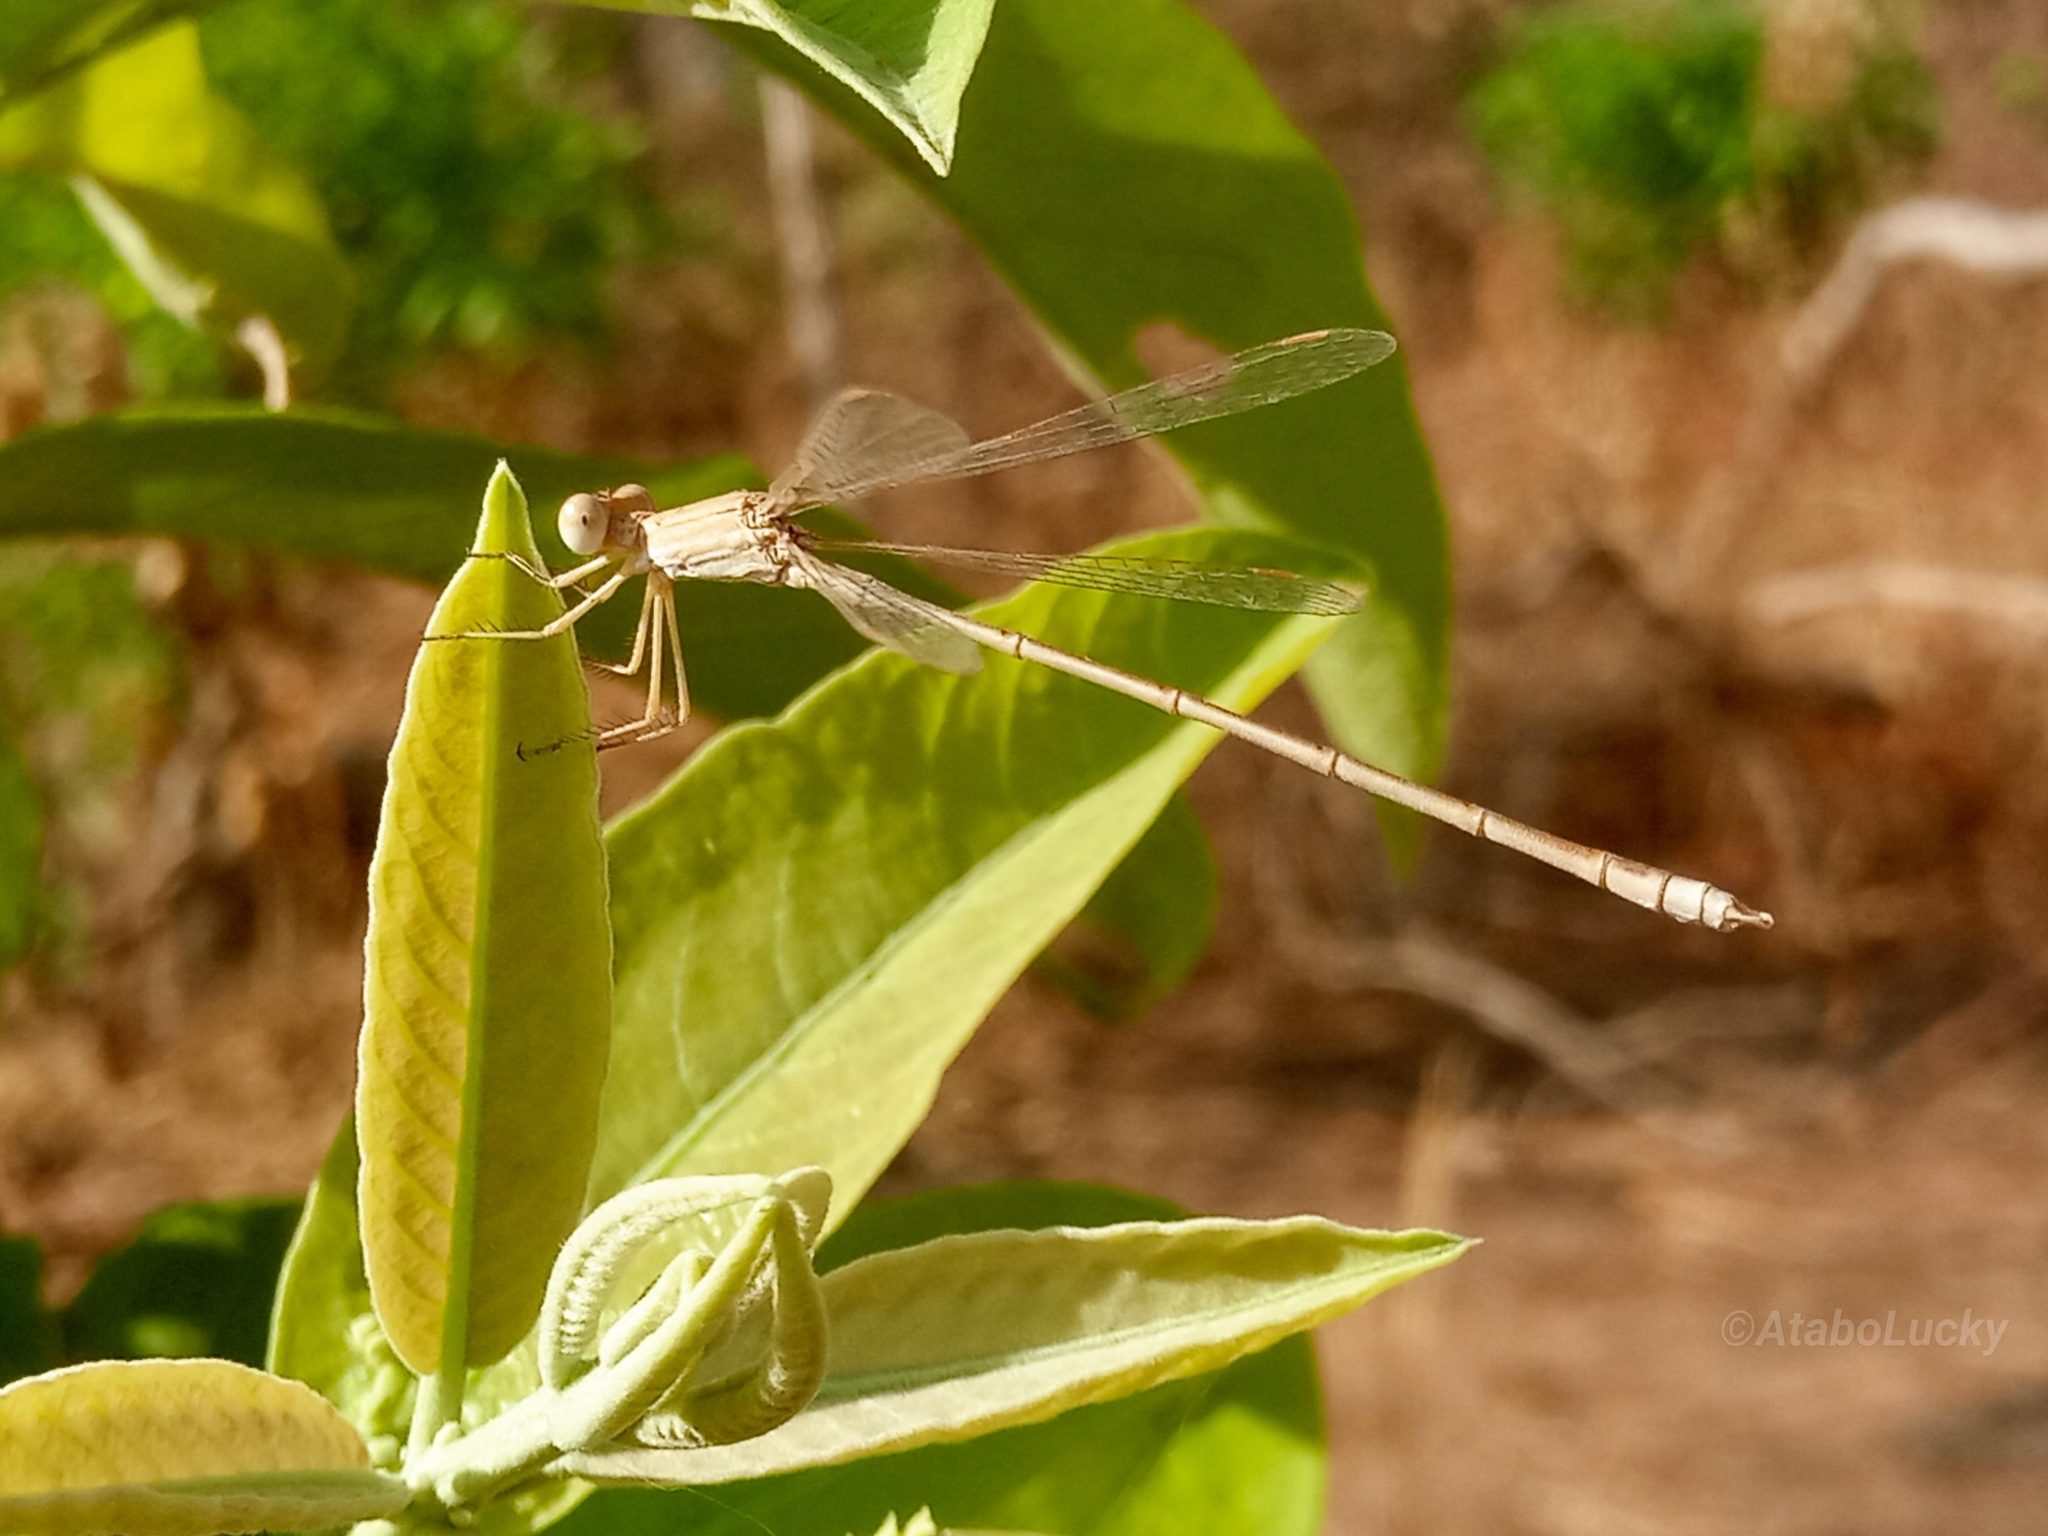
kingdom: Animalia
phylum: Arthropoda
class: Insecta
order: Odonata
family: Lestidae
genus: Lestes
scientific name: Lestes pallidus
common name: Pallid spreadwing
